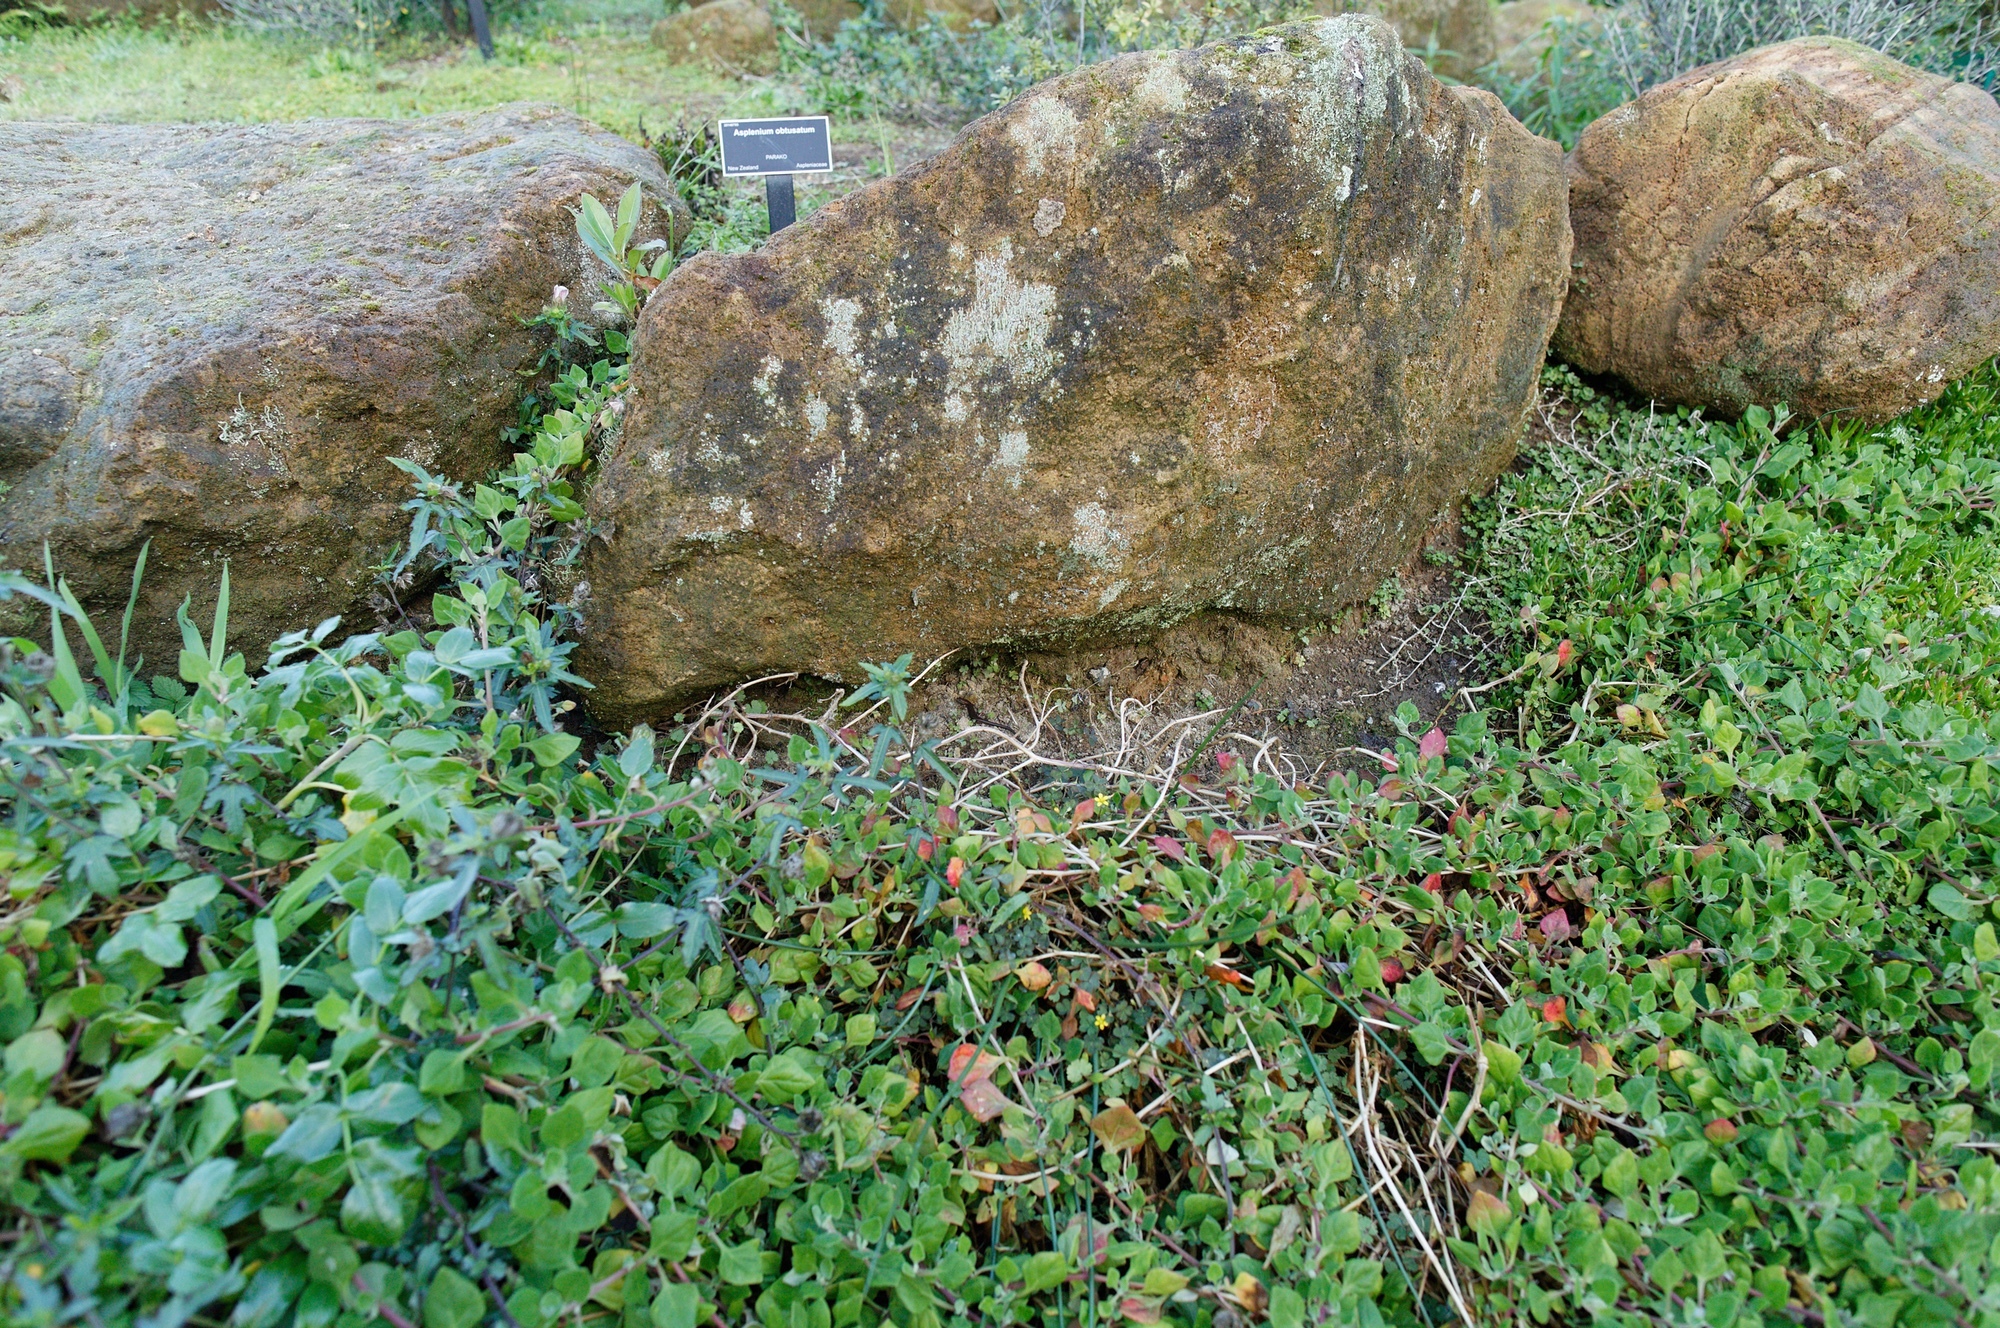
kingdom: Animalia
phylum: Chordata
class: Squamata
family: Scincidae
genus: Lampropholis
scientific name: Lampropholis delicata
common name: Plague skink
